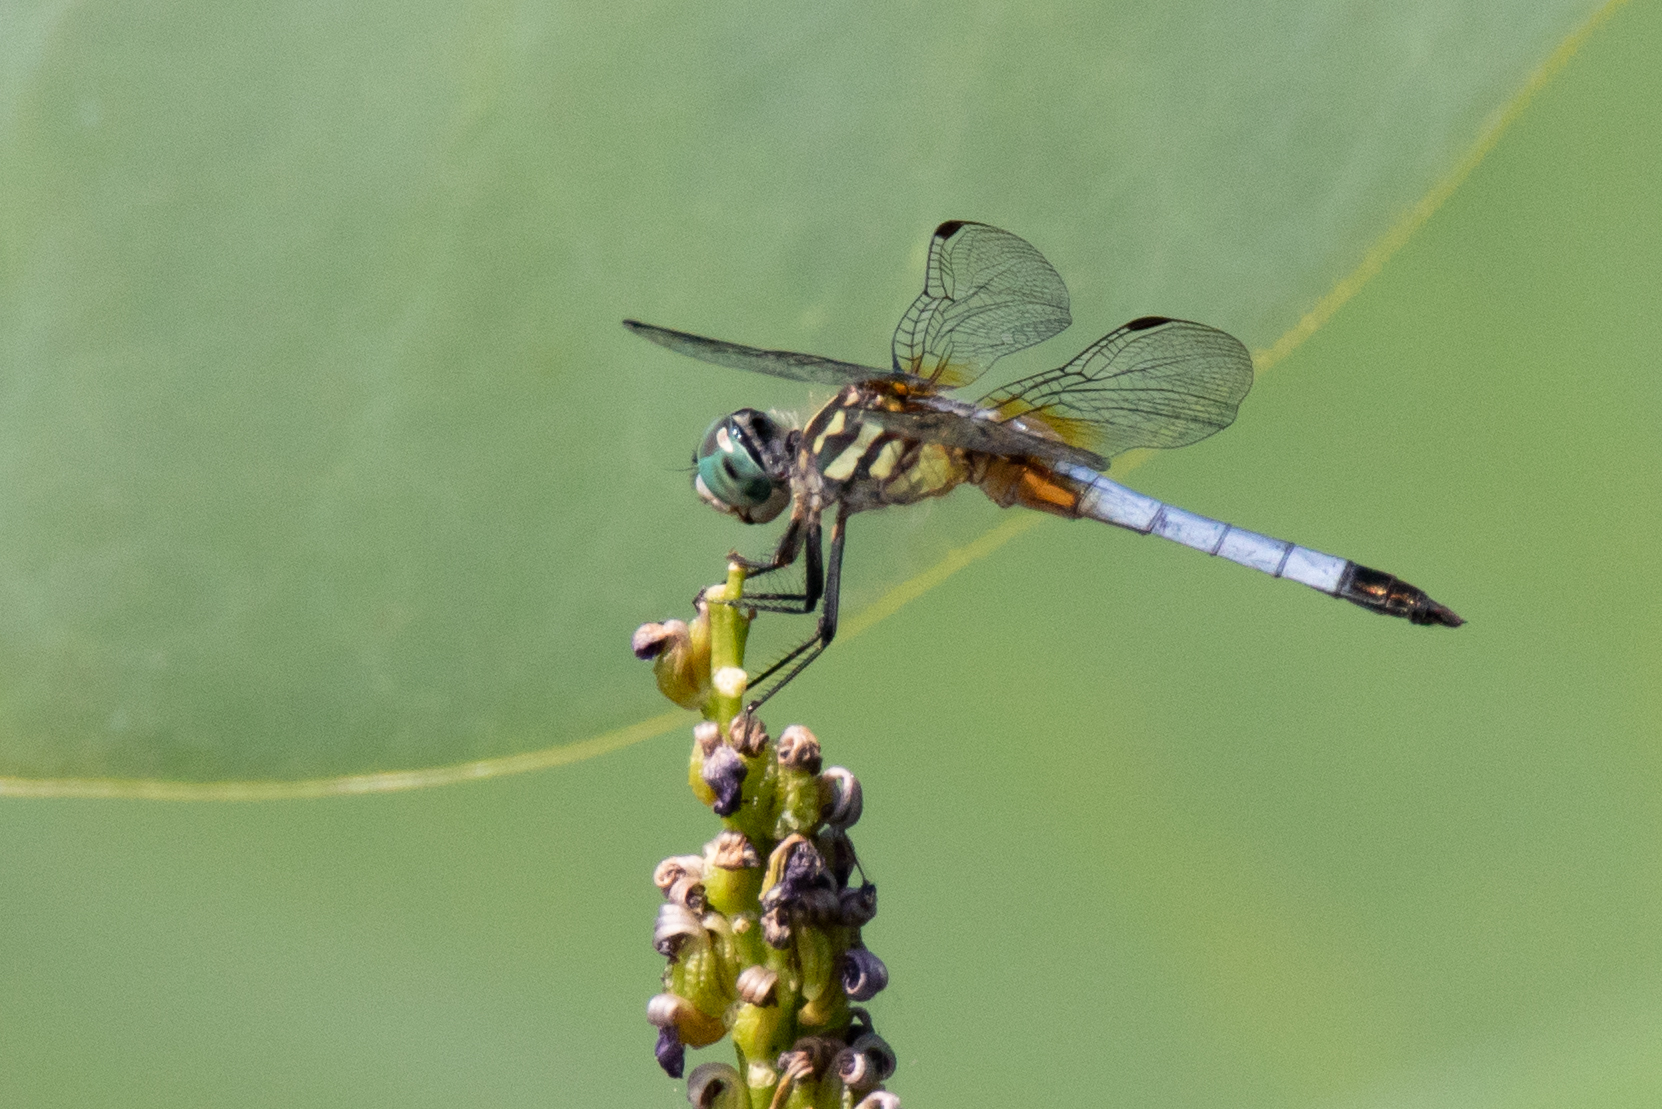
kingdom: Animalia
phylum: Arthropoda
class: Insecta
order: Odonata
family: Libellulidae
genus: Pachydiplax
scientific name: Pachydiplax longipennis
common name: Blue dasher
